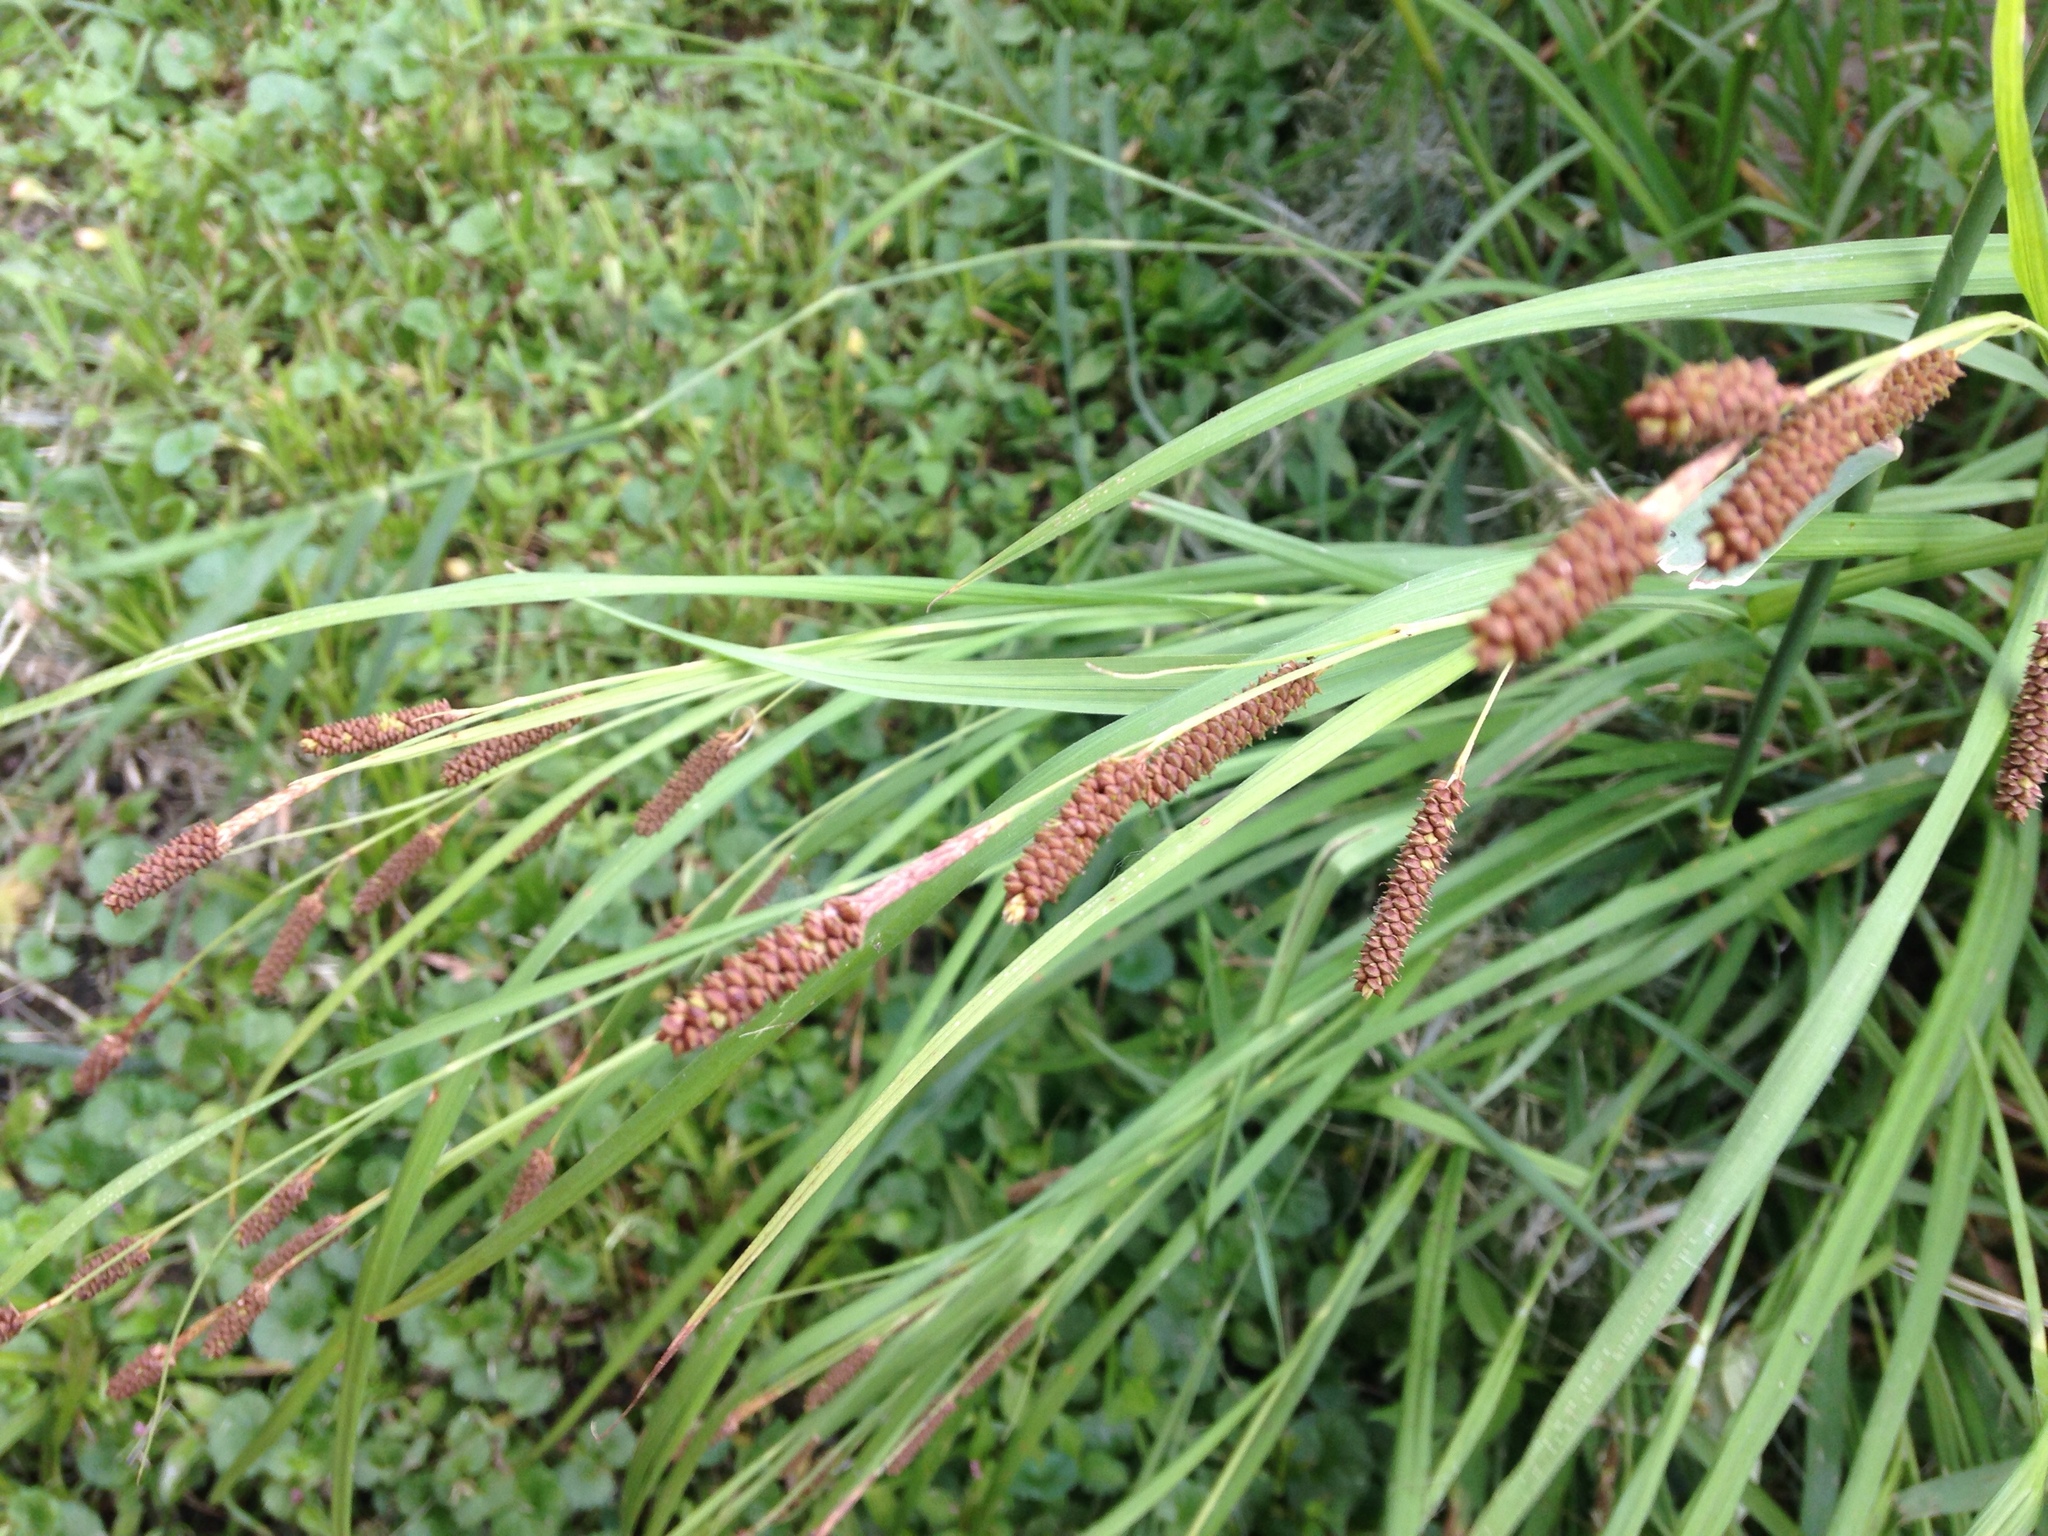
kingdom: Plantae
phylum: Tracheophyta
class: Liliopsida
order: Poales
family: Cyperaceae
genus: Carex
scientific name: Carex shortiana
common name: Short's sedge
